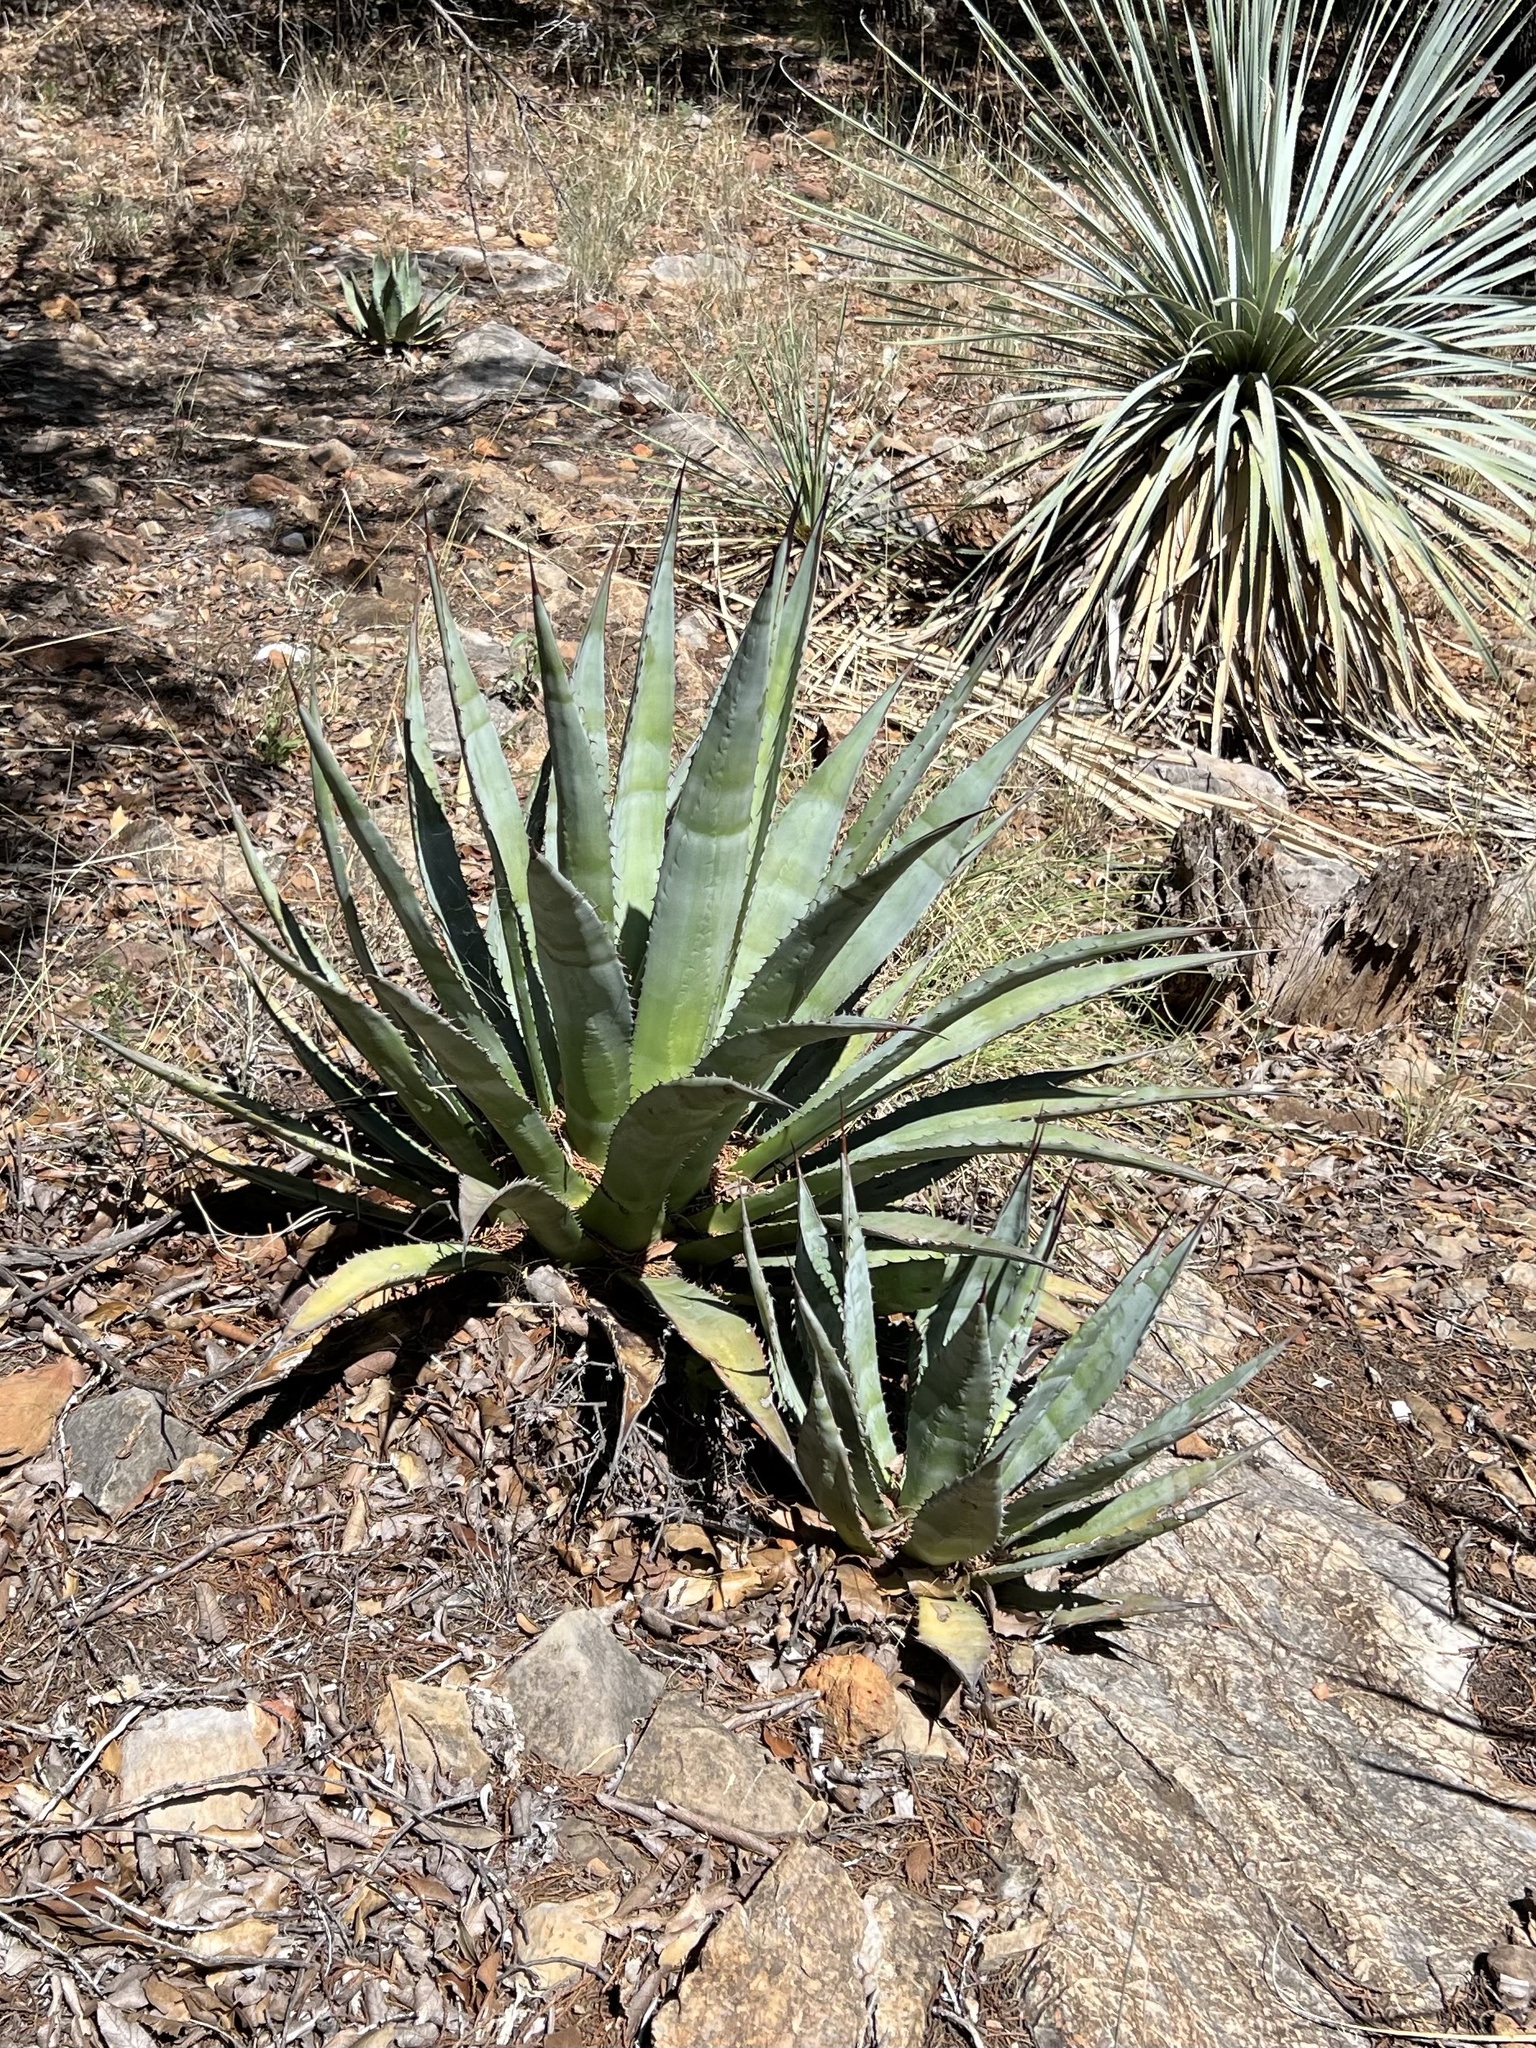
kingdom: Plantae
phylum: Tracheophyta
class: Liliopsida
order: Asparagales
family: Asparagaceae
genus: Agave
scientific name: Agave palmeri
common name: Palmer agave
